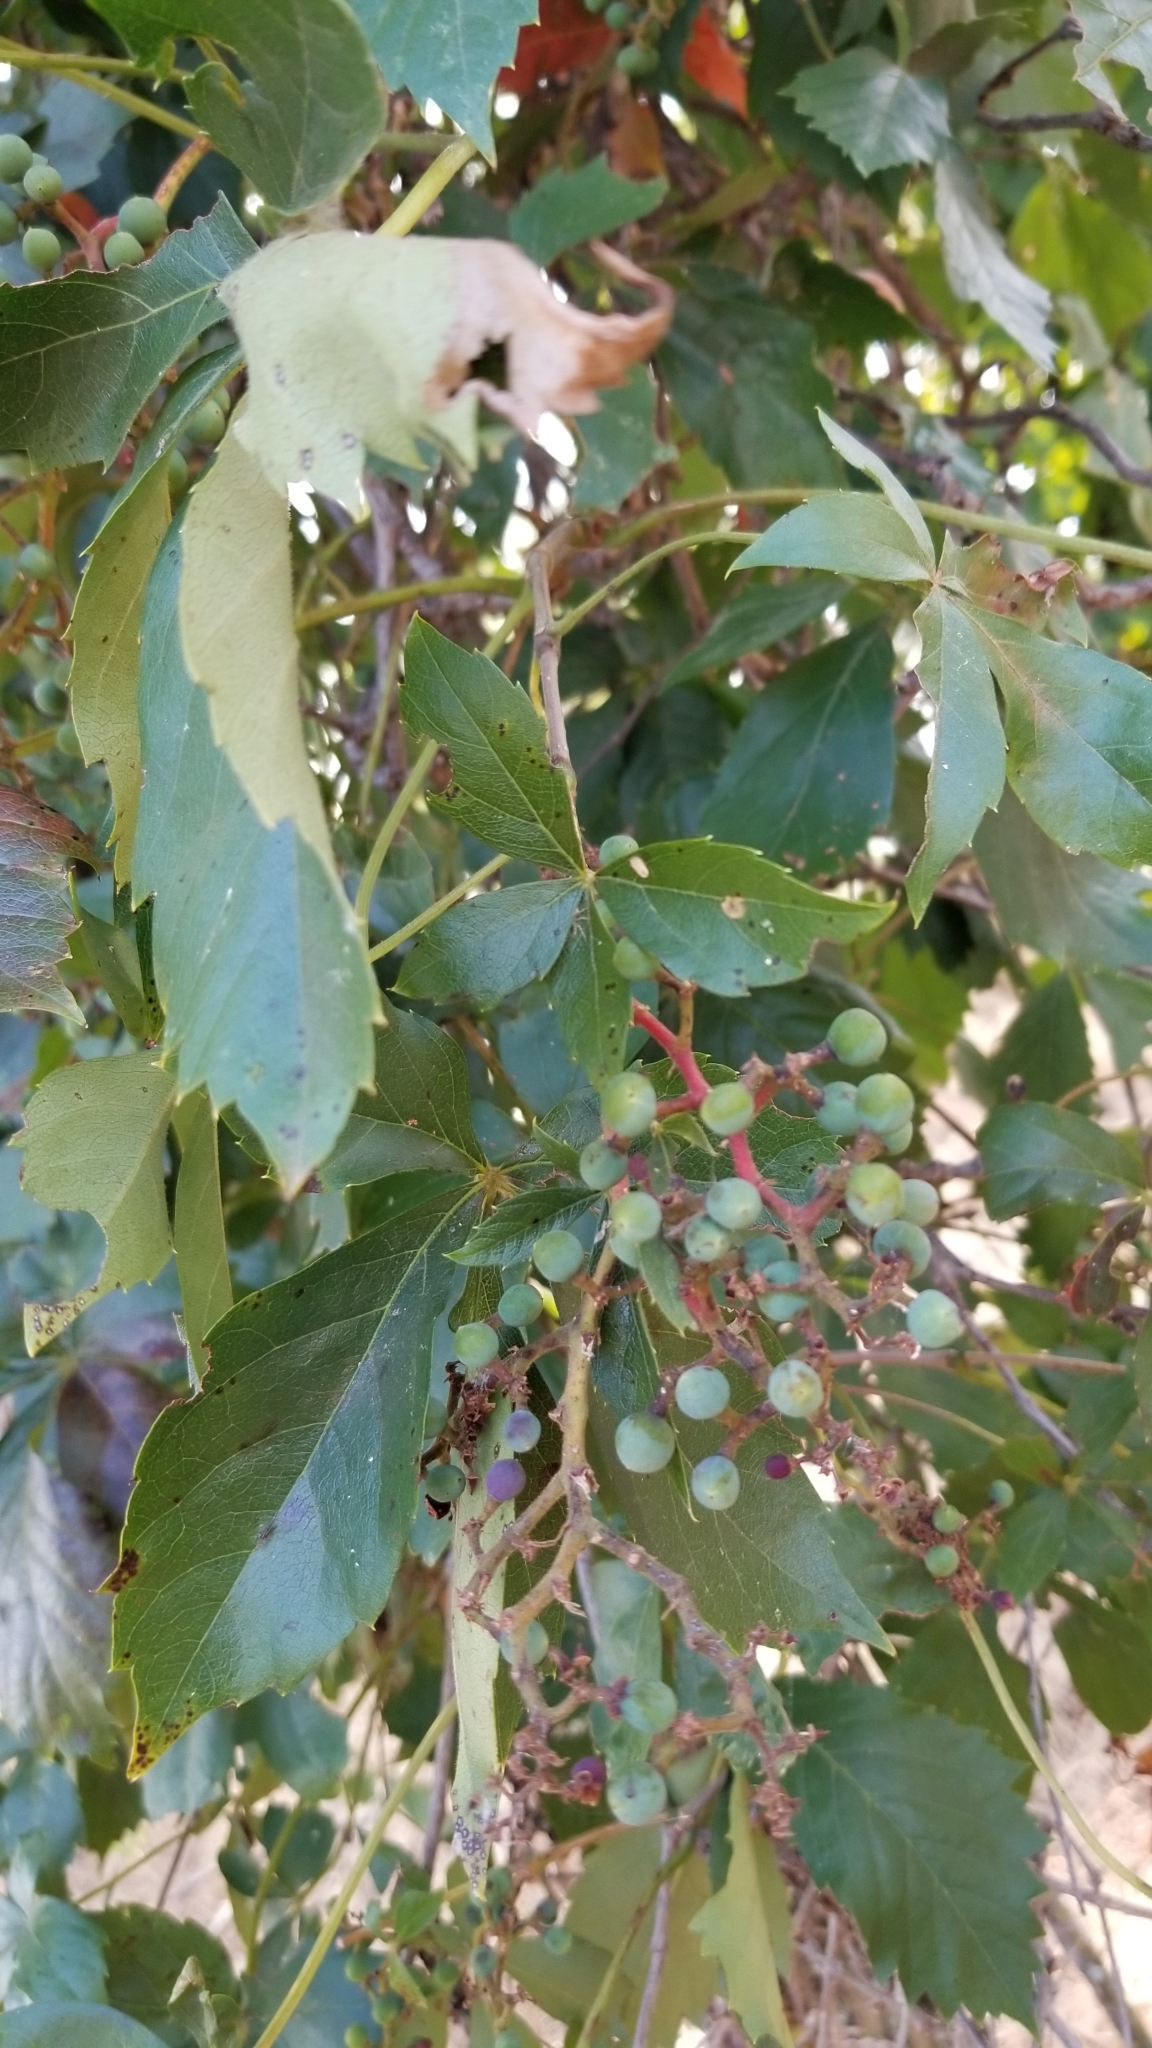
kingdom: Plantae
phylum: Tracheophyta
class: Magnoliopsida
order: Vitales
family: Vitaceae
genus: Parthenocissus
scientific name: Parthenocissus quinquefolia
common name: Virginia-creeper
